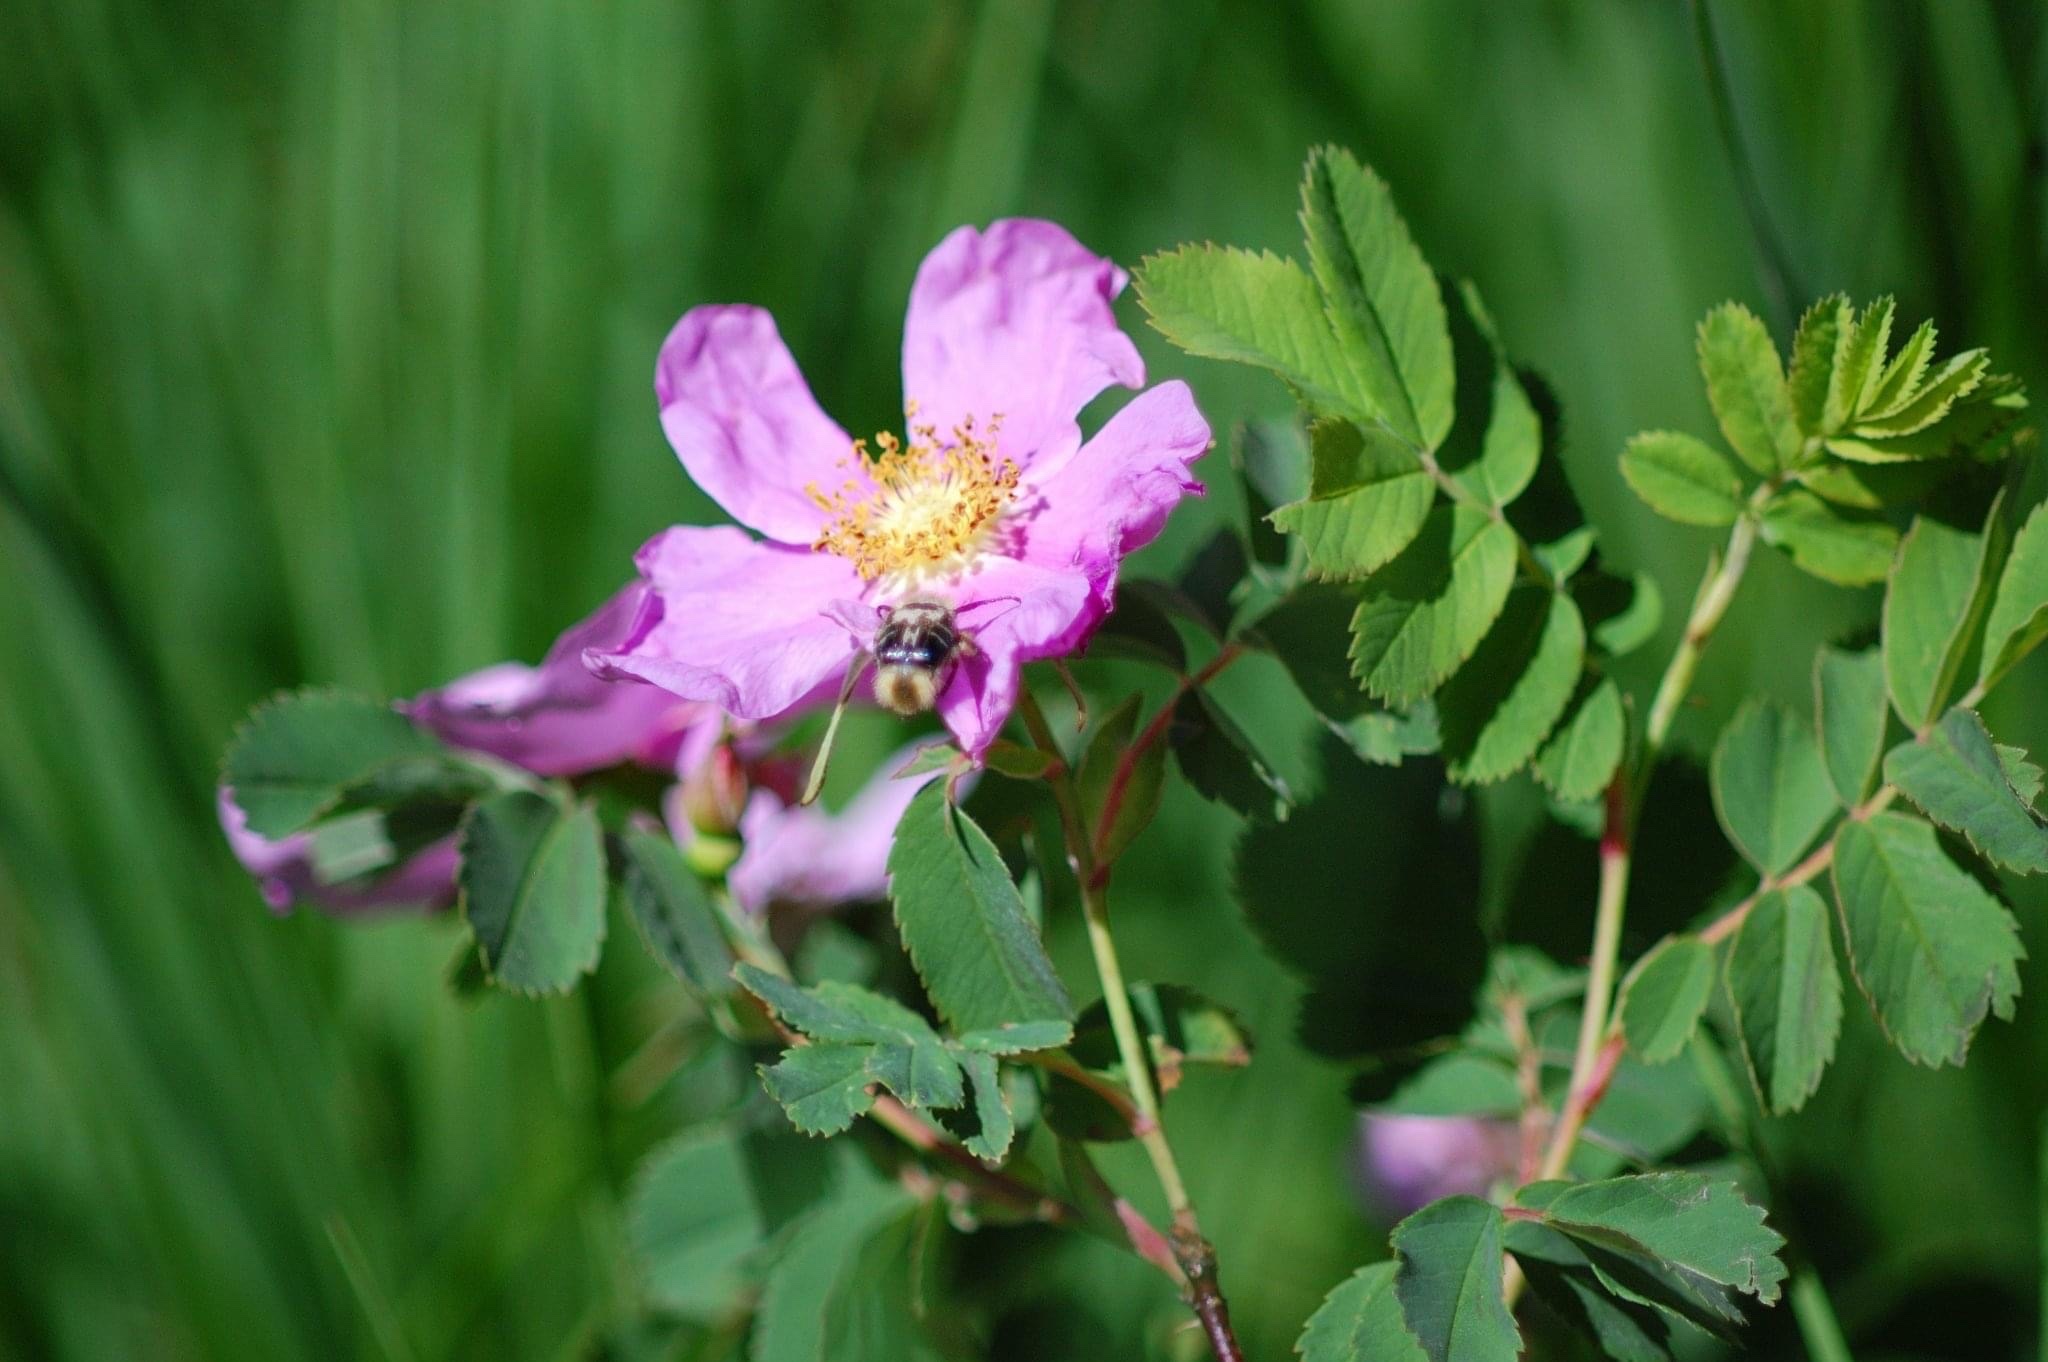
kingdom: Animalia
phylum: Arthropoda
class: Insecta
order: Coleoptera
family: Scarabaeidae
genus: Trichiotinus
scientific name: Trichiotinus assimilis
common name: Bee-mimic beetle
